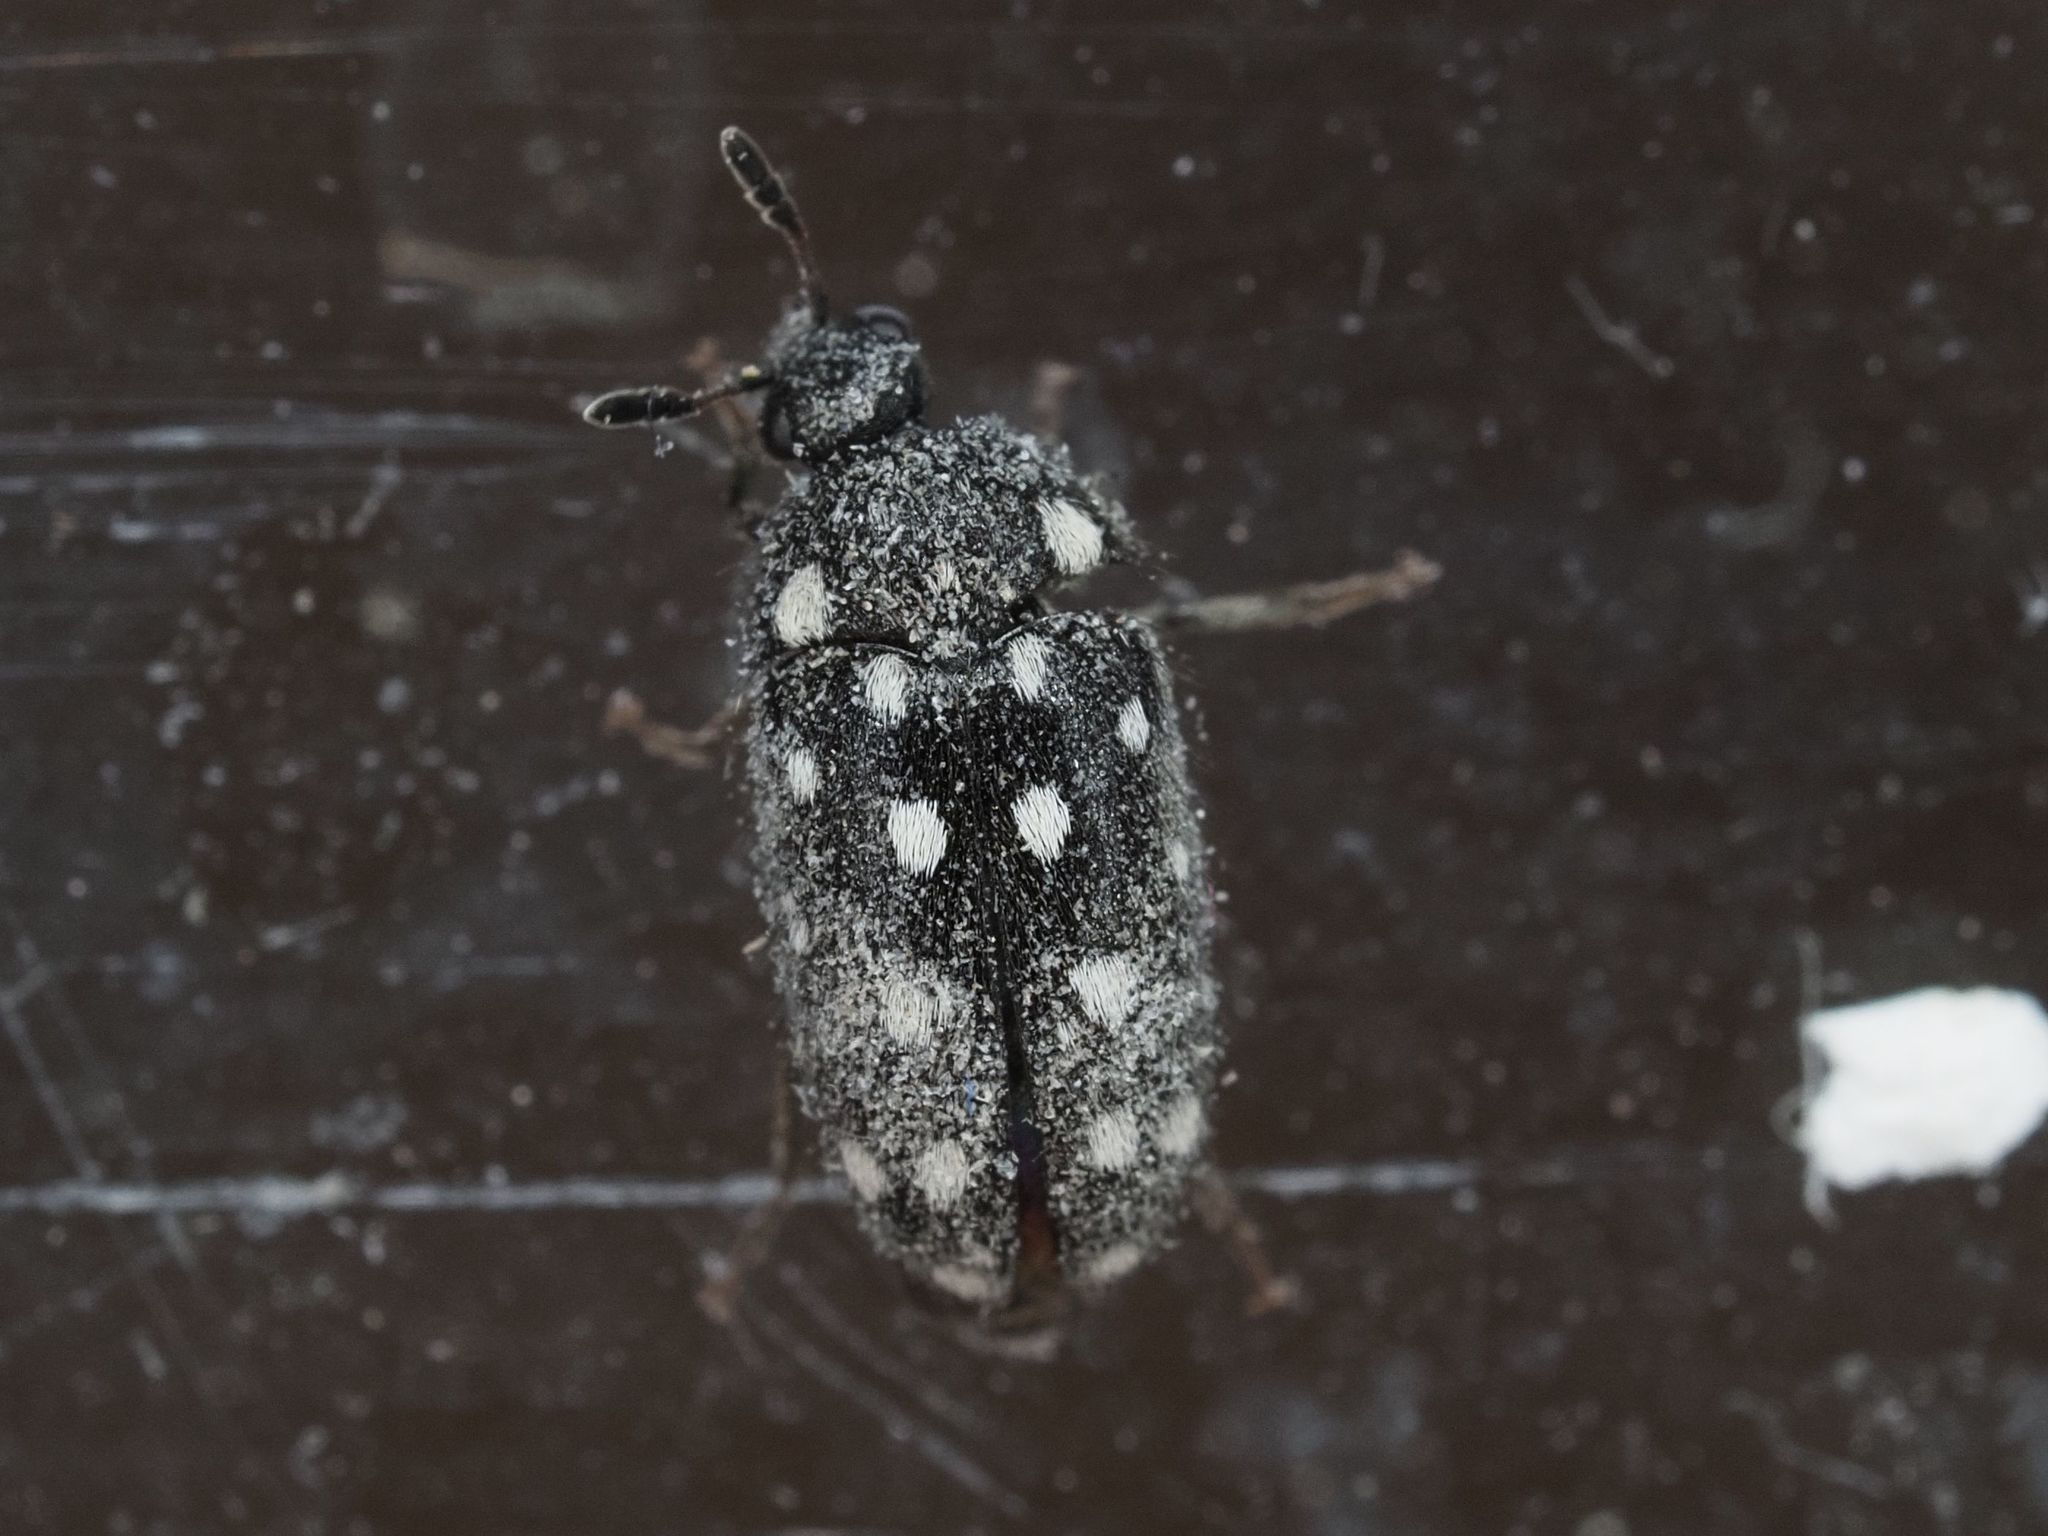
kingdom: Animalia
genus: Paranovelsis
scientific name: Paranovelsis
